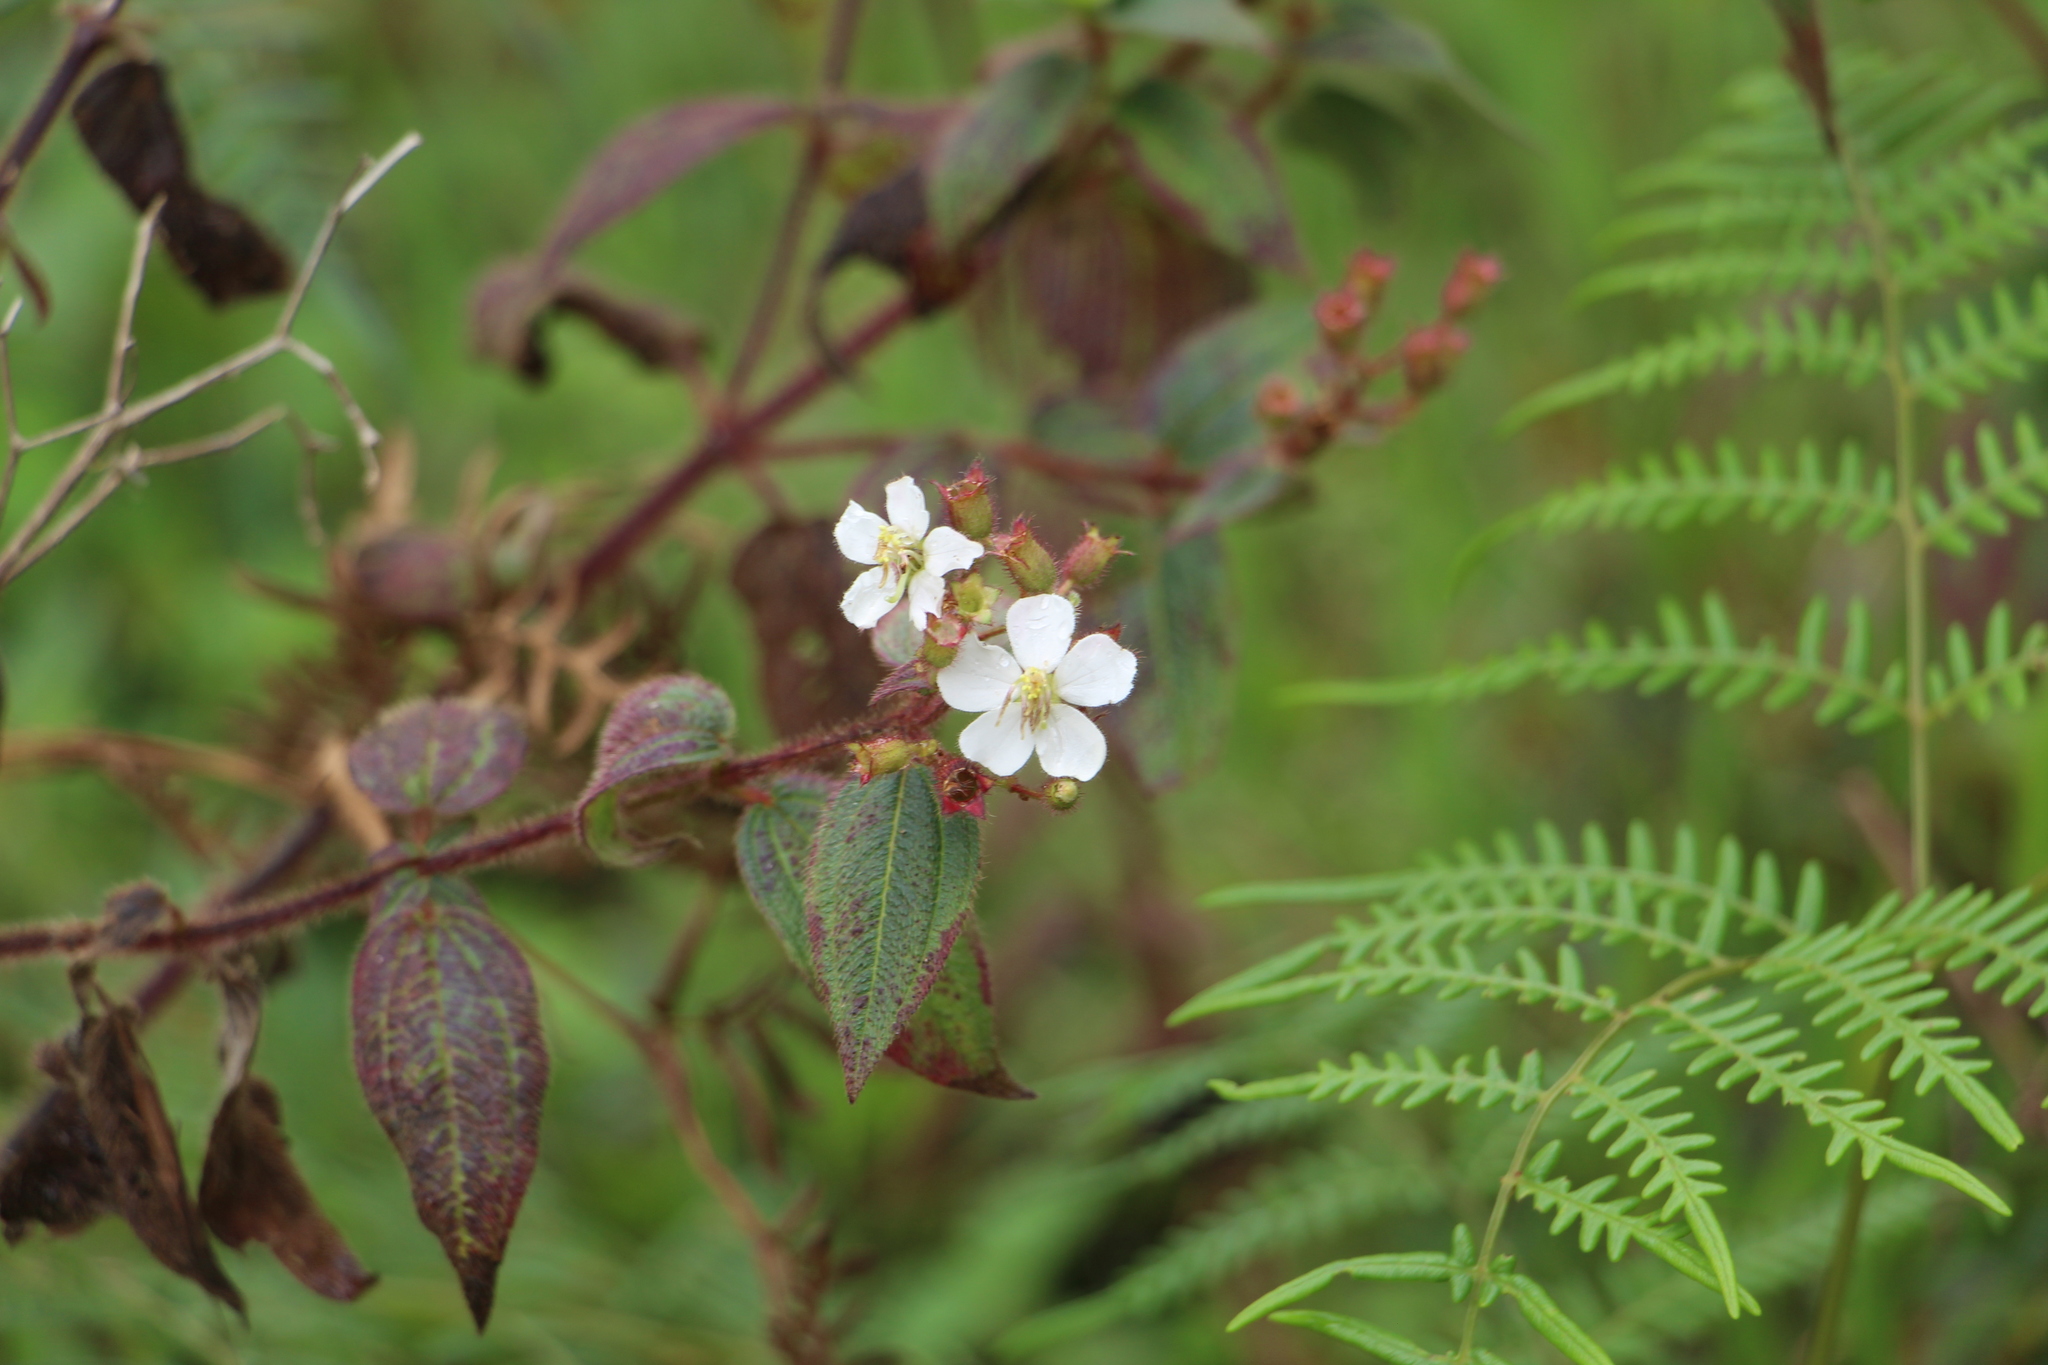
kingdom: Plantae
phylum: Tracheophyta
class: Magnoliopsida
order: Myrtales
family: Melastomataceae
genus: Chaetogastra
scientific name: Chaetogastra ciliaris
